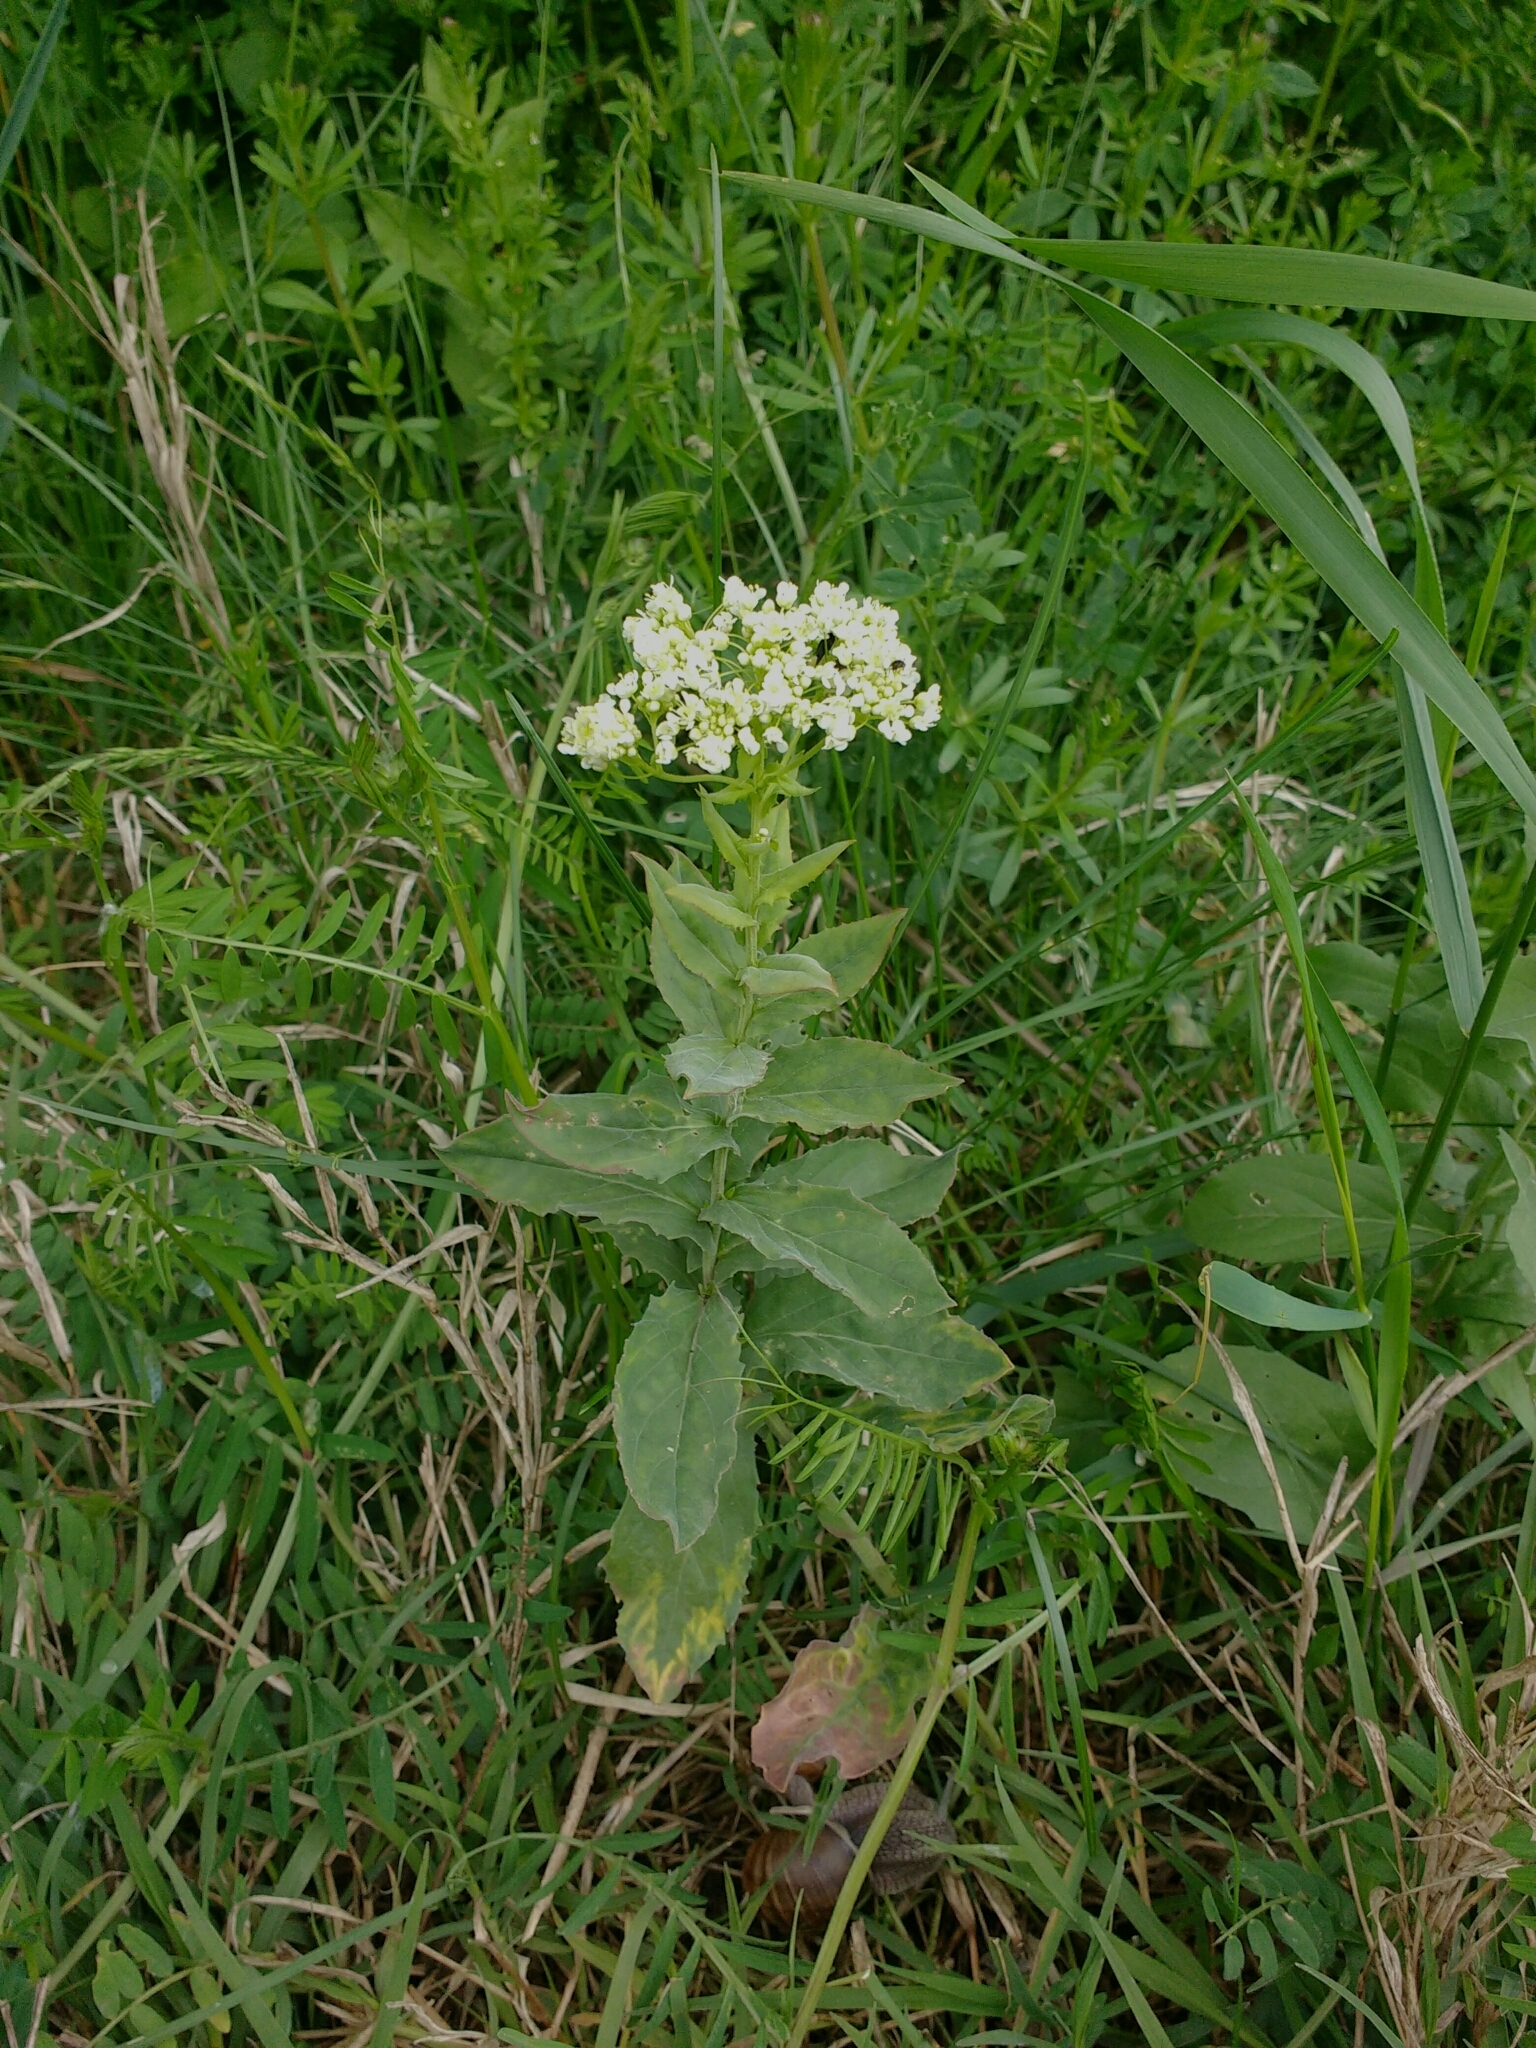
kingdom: Plantae
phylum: Tracheophyta
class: Magnoliopsida
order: Brassicales
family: Brassicaceae
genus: Lepidium
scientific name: Lepidium draba
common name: Hoary cress
